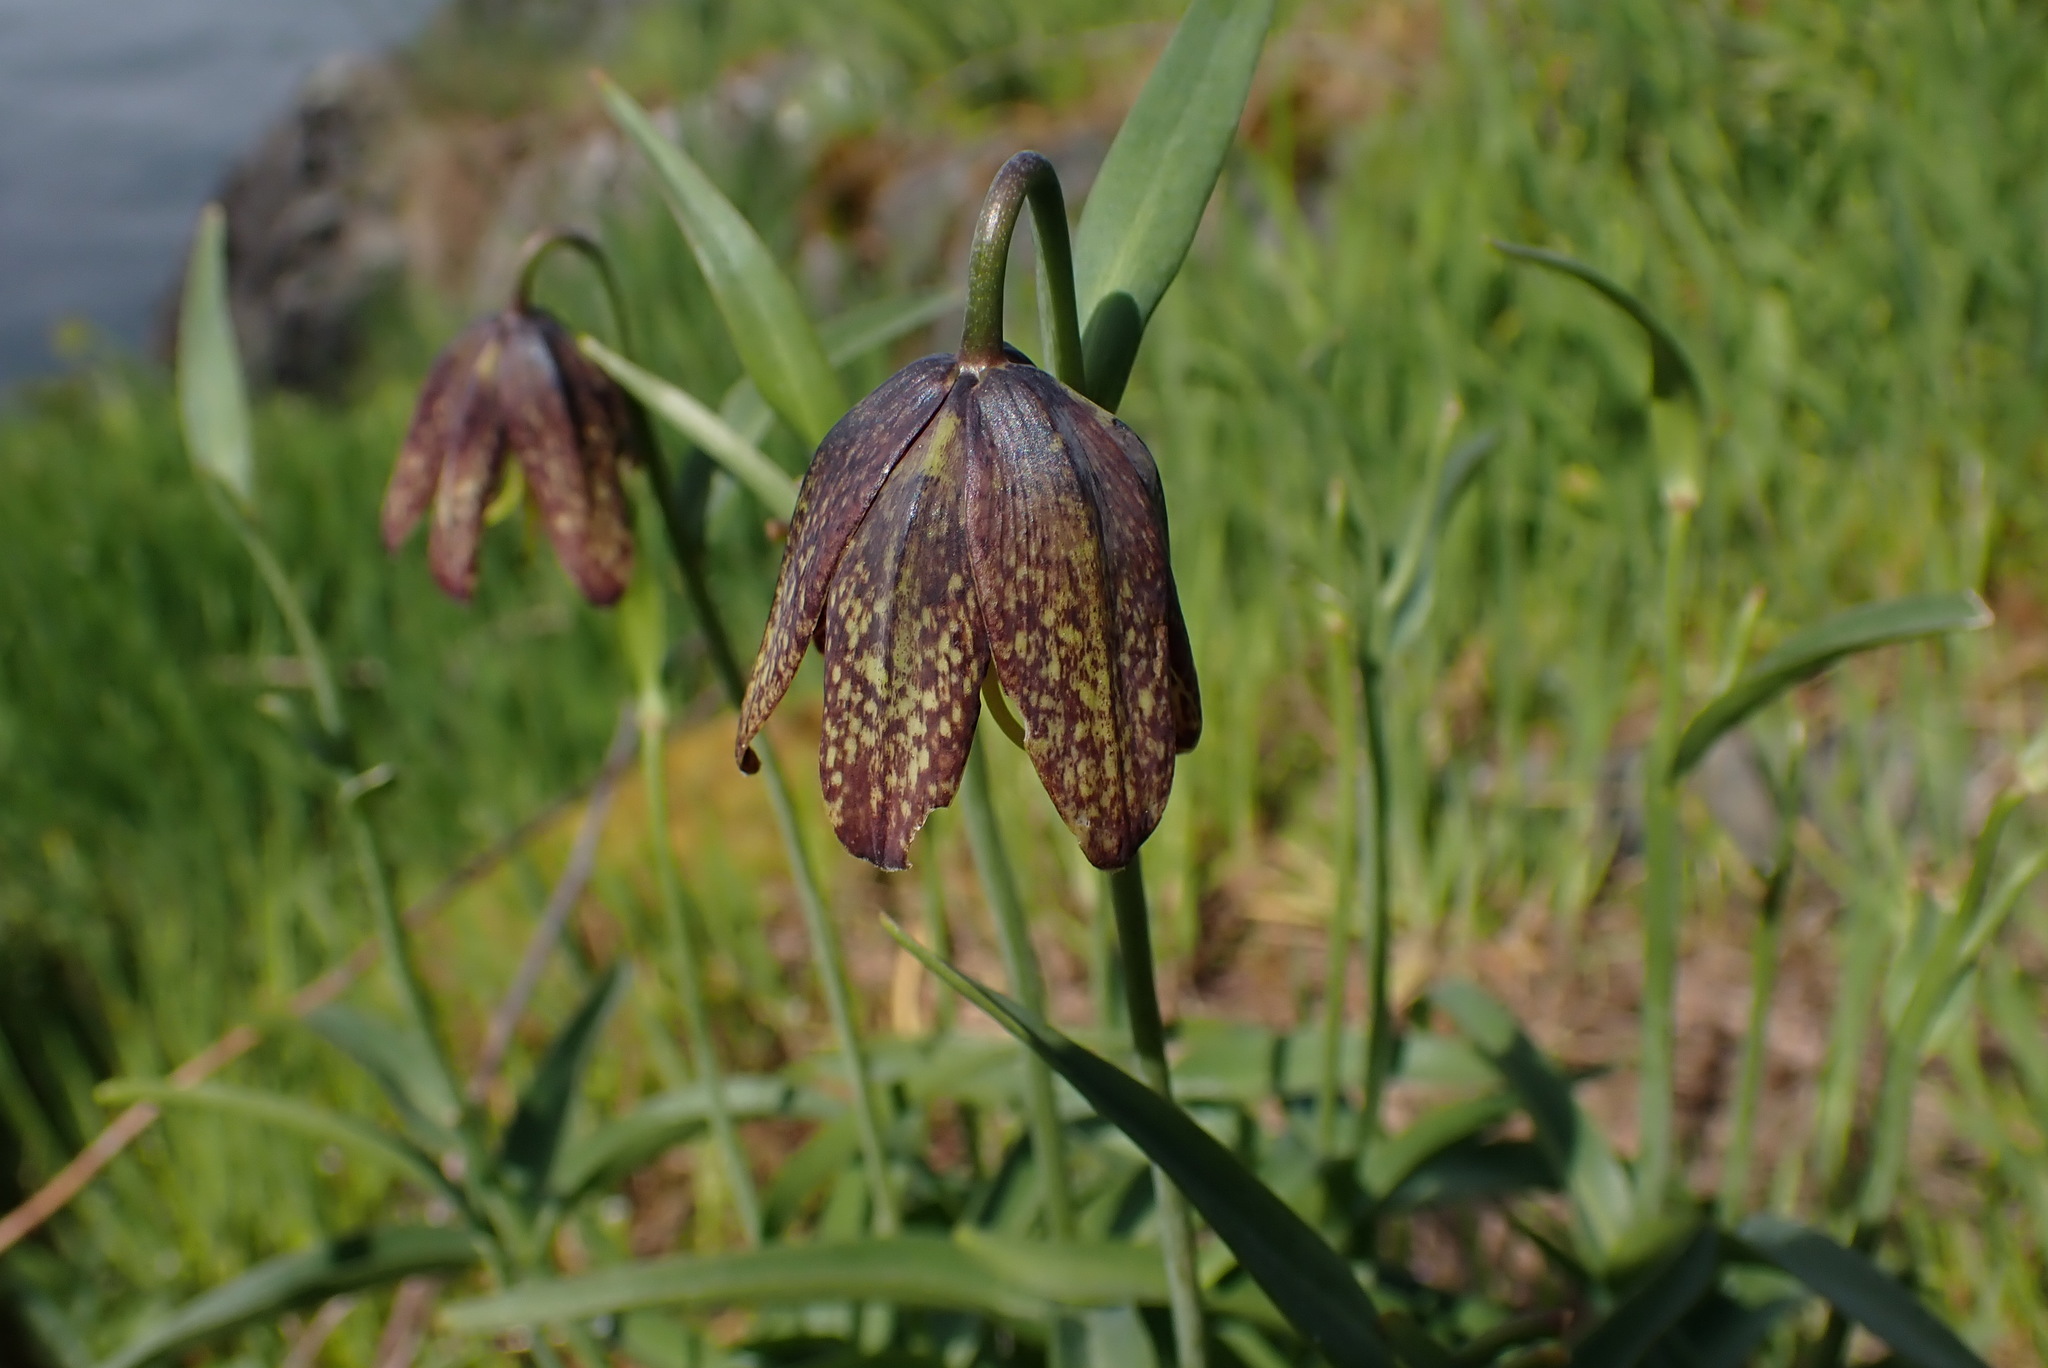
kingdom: Plantae
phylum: Tracheophyta
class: Liliopsida
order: Liliales
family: Liliaceae
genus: Fritillaria
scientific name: Fritillaria affinis
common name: Ojai fritillary
